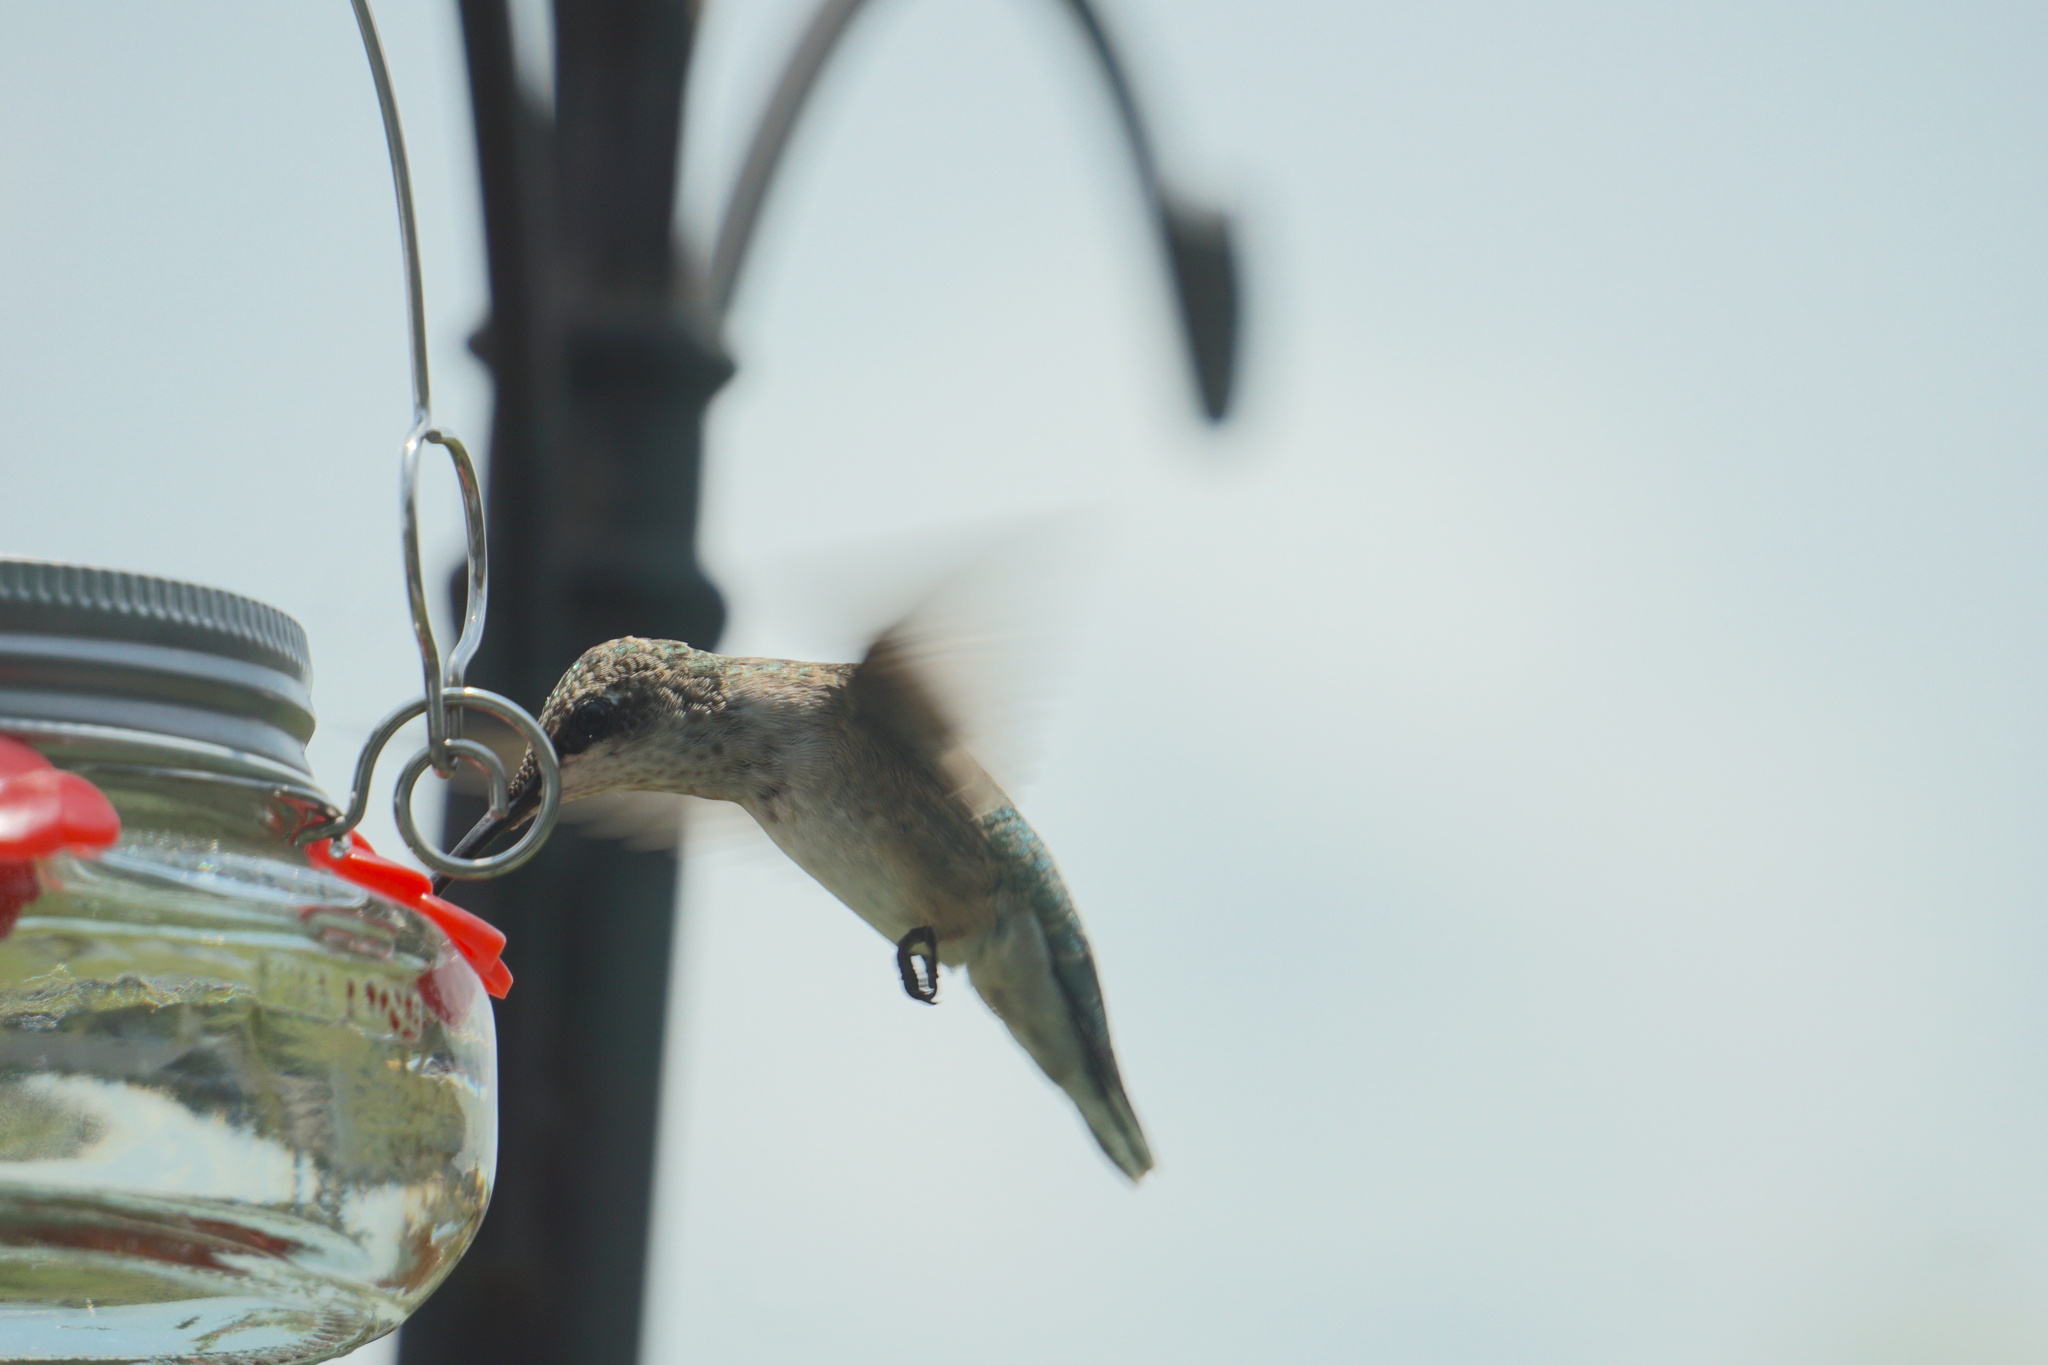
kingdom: Animalia
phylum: Chordata
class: Aves
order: Apodiformes
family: Trochilidae
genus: Archilochus
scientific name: Archilochus colubris
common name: Ruby-throated hummingbird
